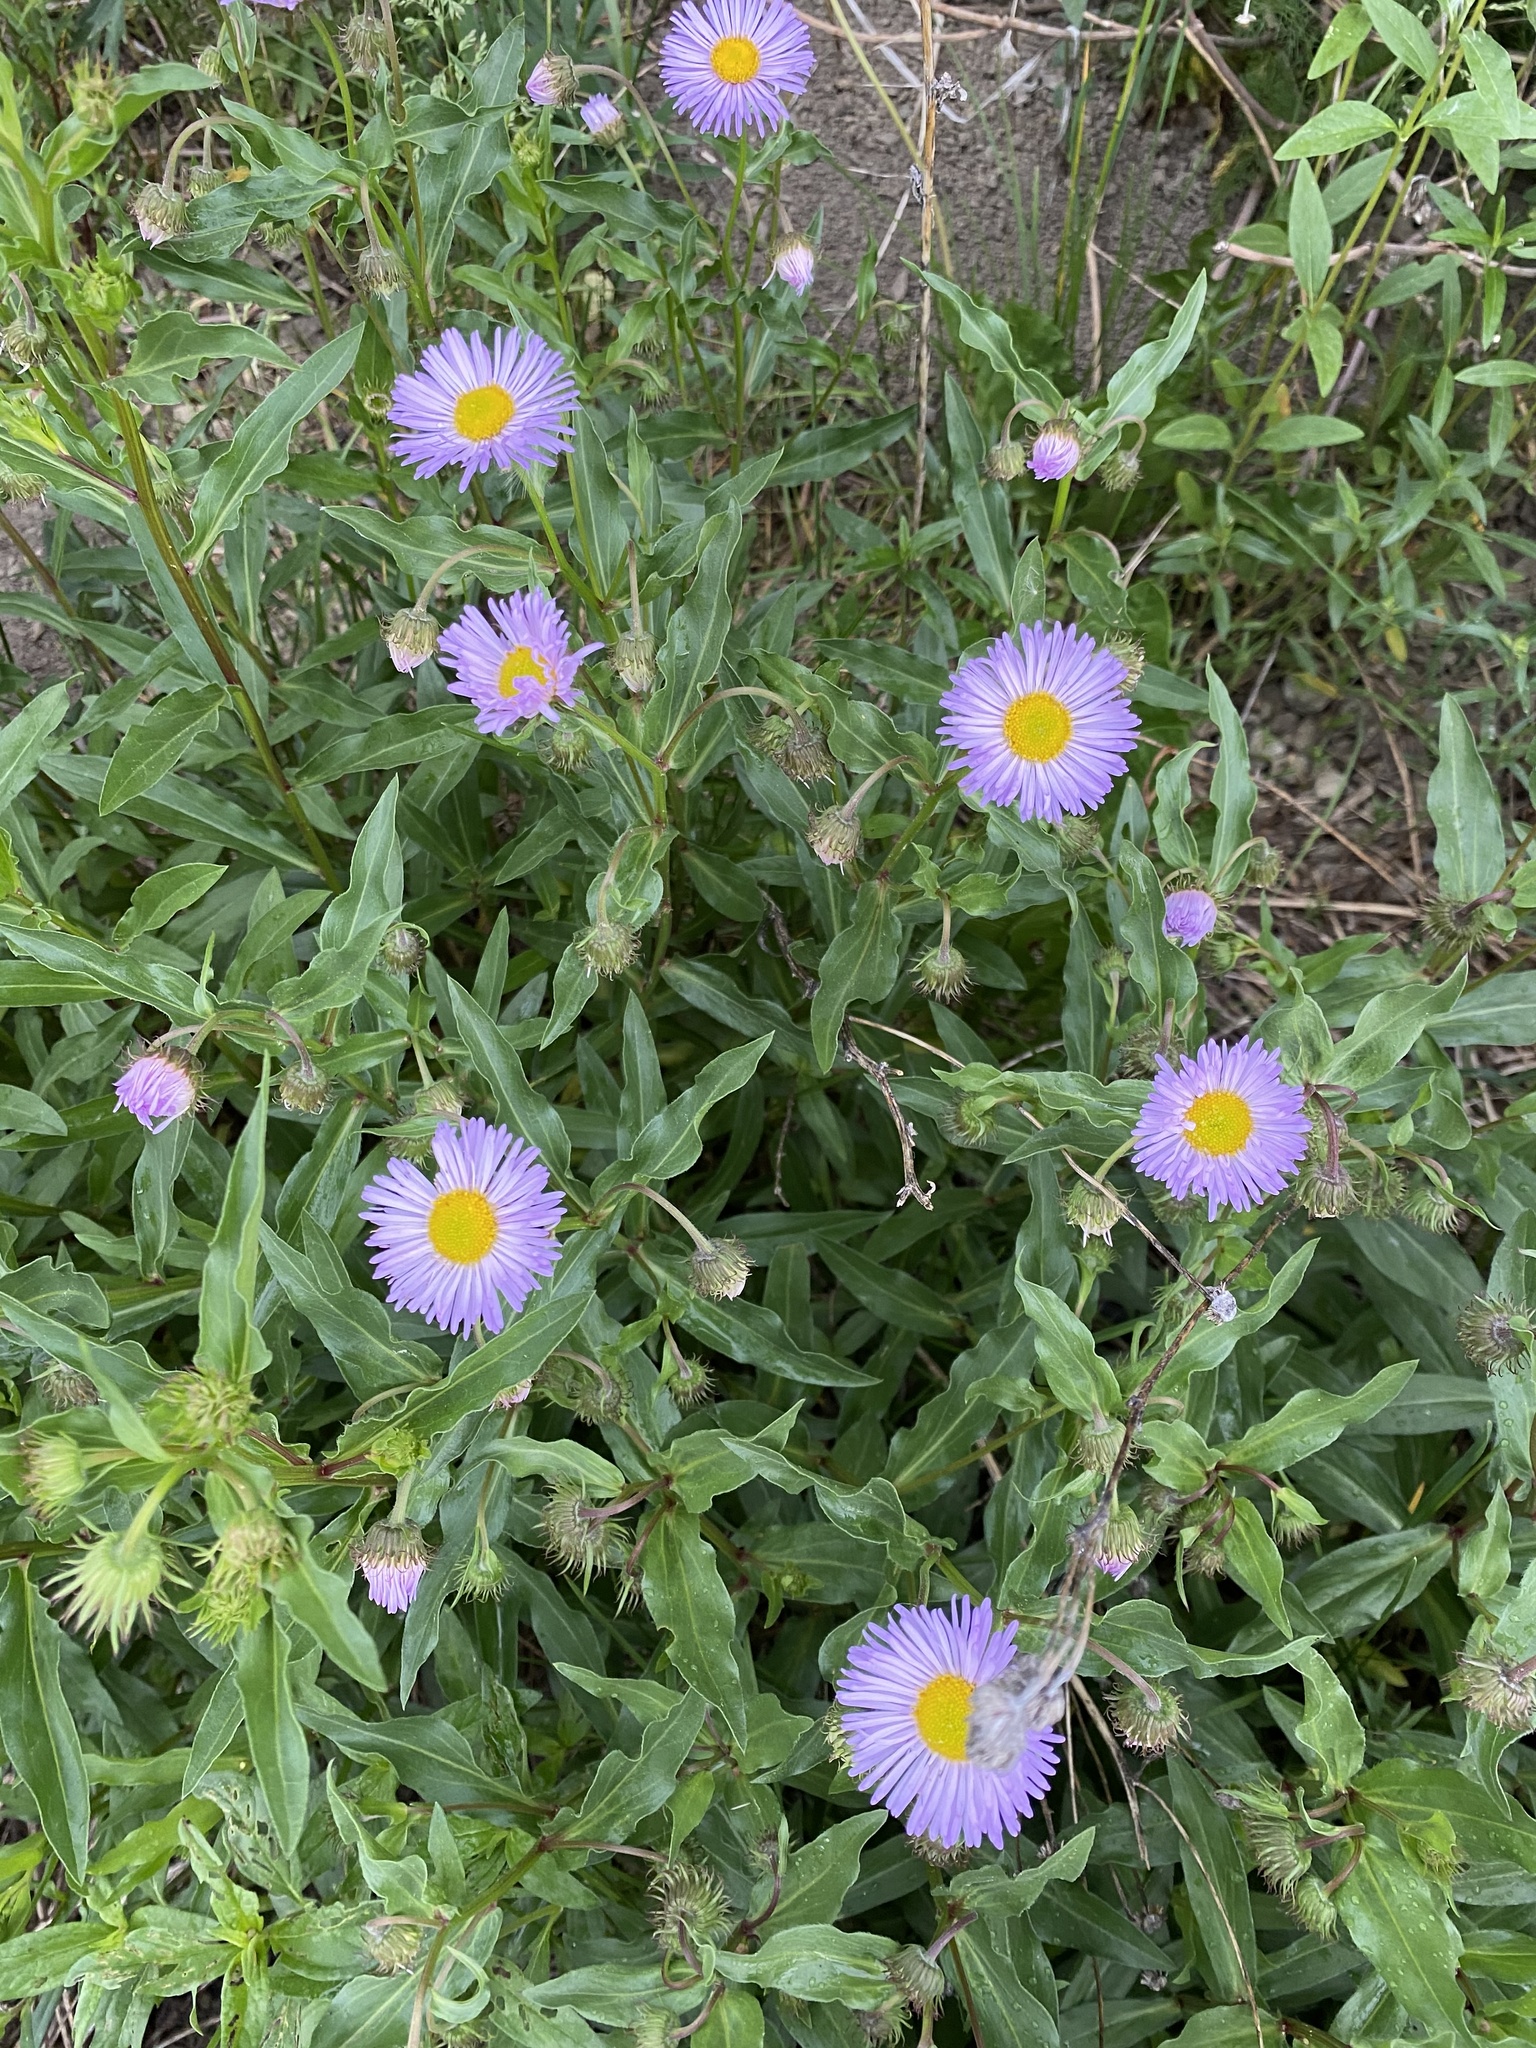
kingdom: Plantae
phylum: Tracheophyta
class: Magnoliopsida
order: Asterales
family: Asteraceae
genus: Erigeron
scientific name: Erigeron speciosus
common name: Aspen fleabane
